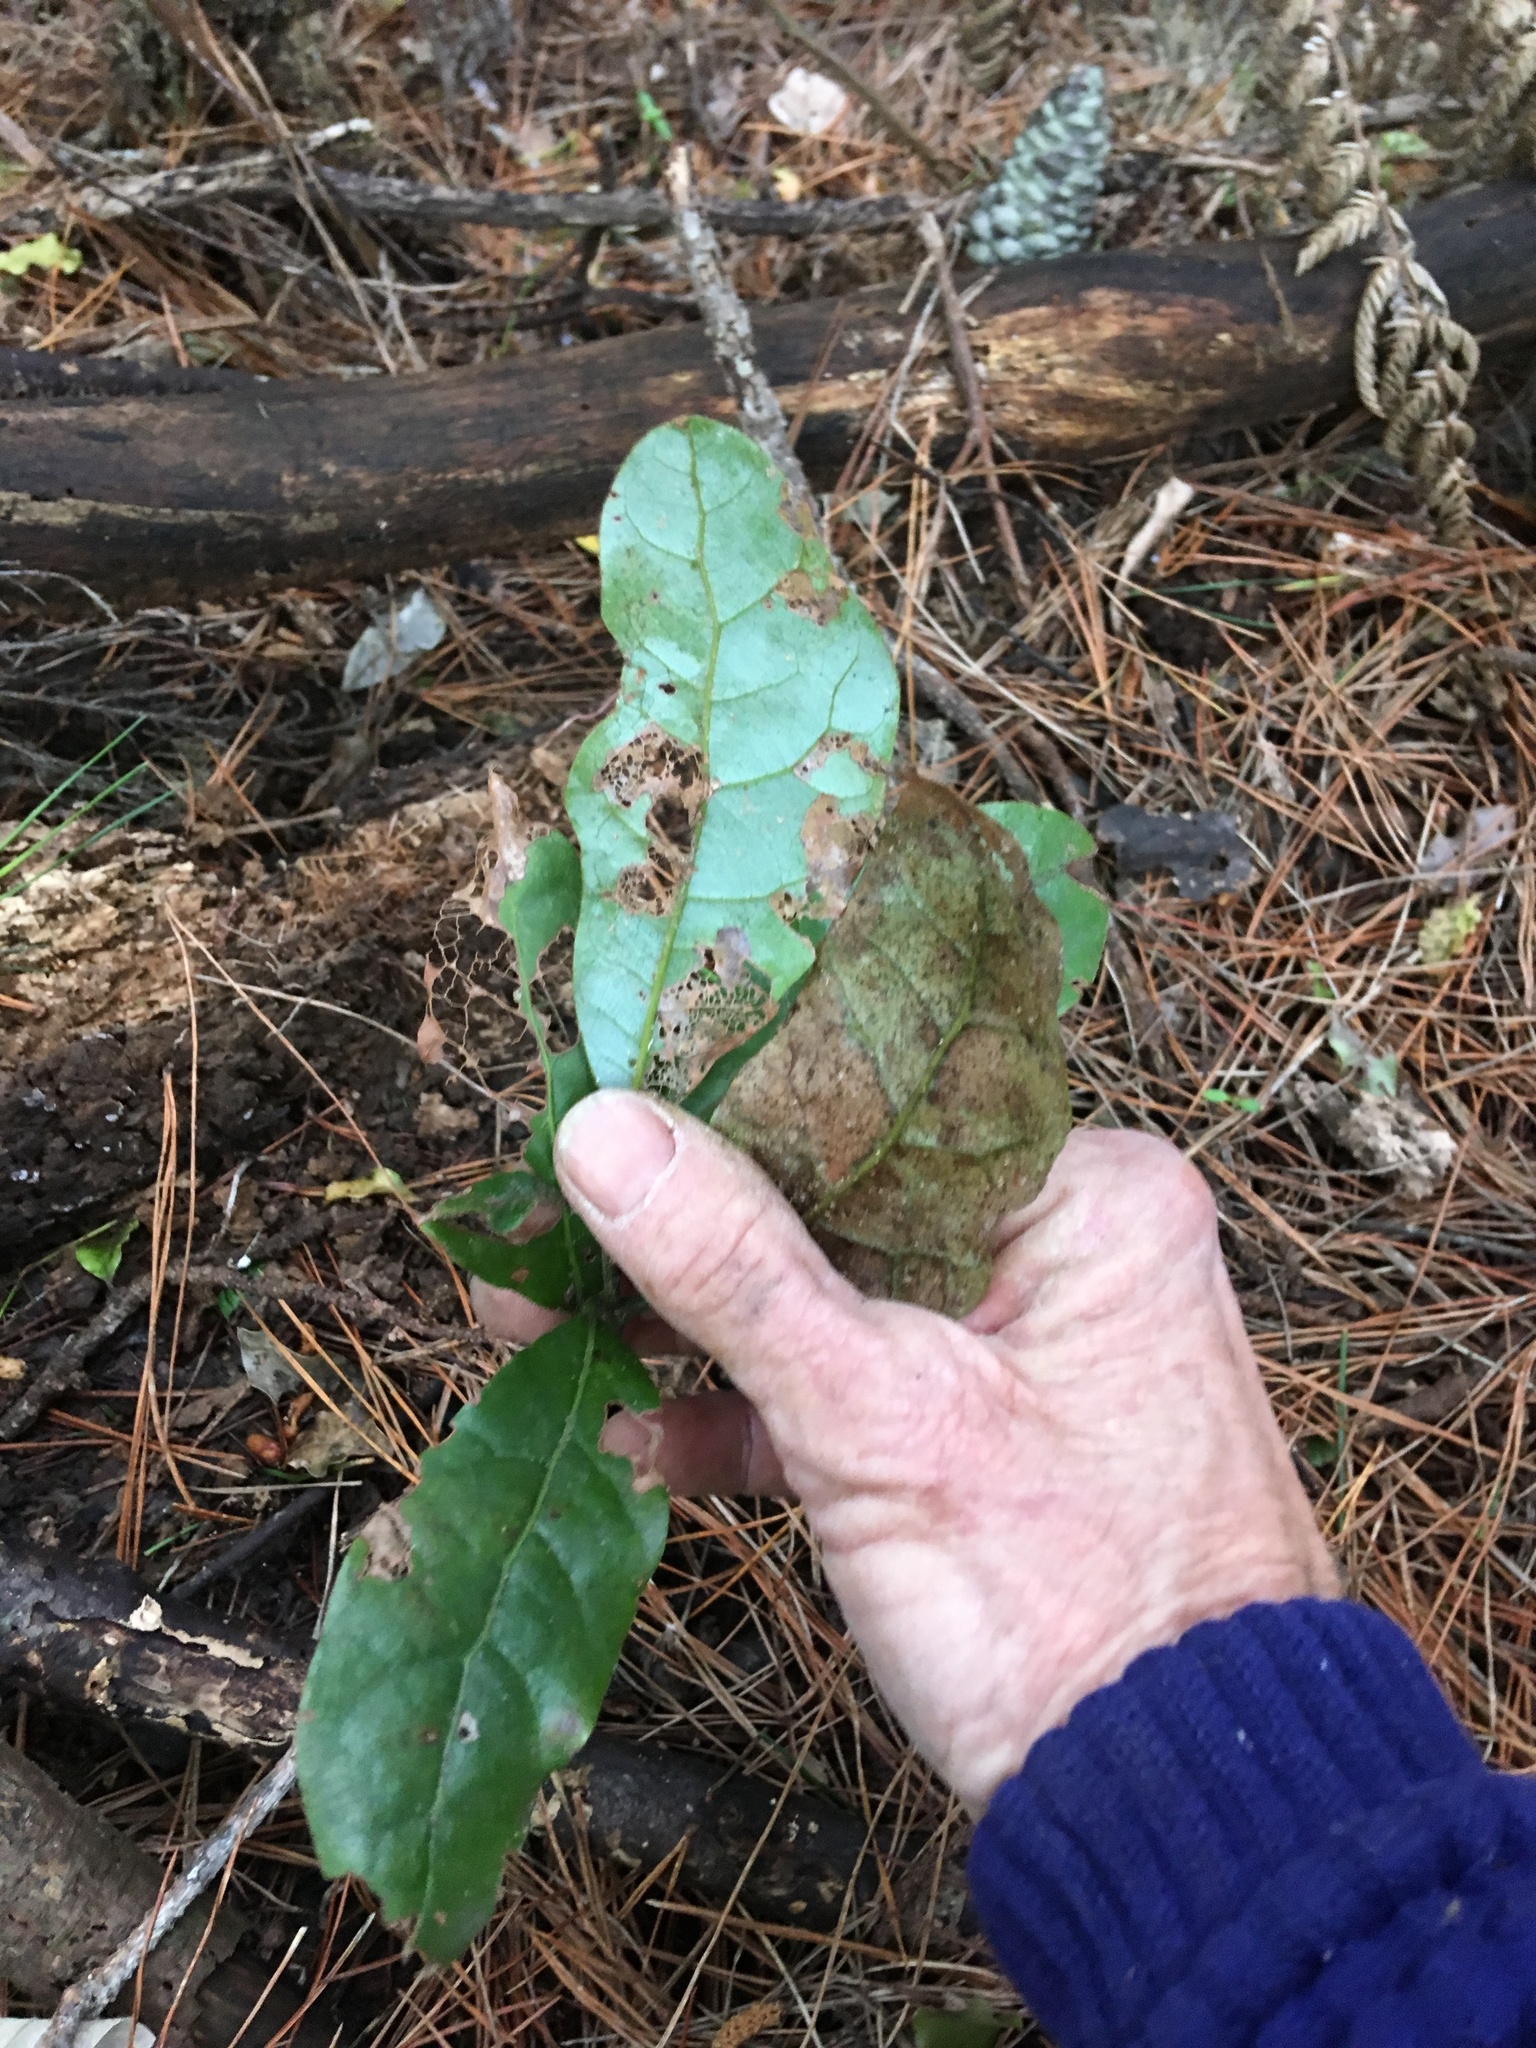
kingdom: Plantae
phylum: Tracheophyta
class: Magnoliopsida
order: Laurales
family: Lauraceae
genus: Beilschmiedia
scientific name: Beilschmiedia tarairi
